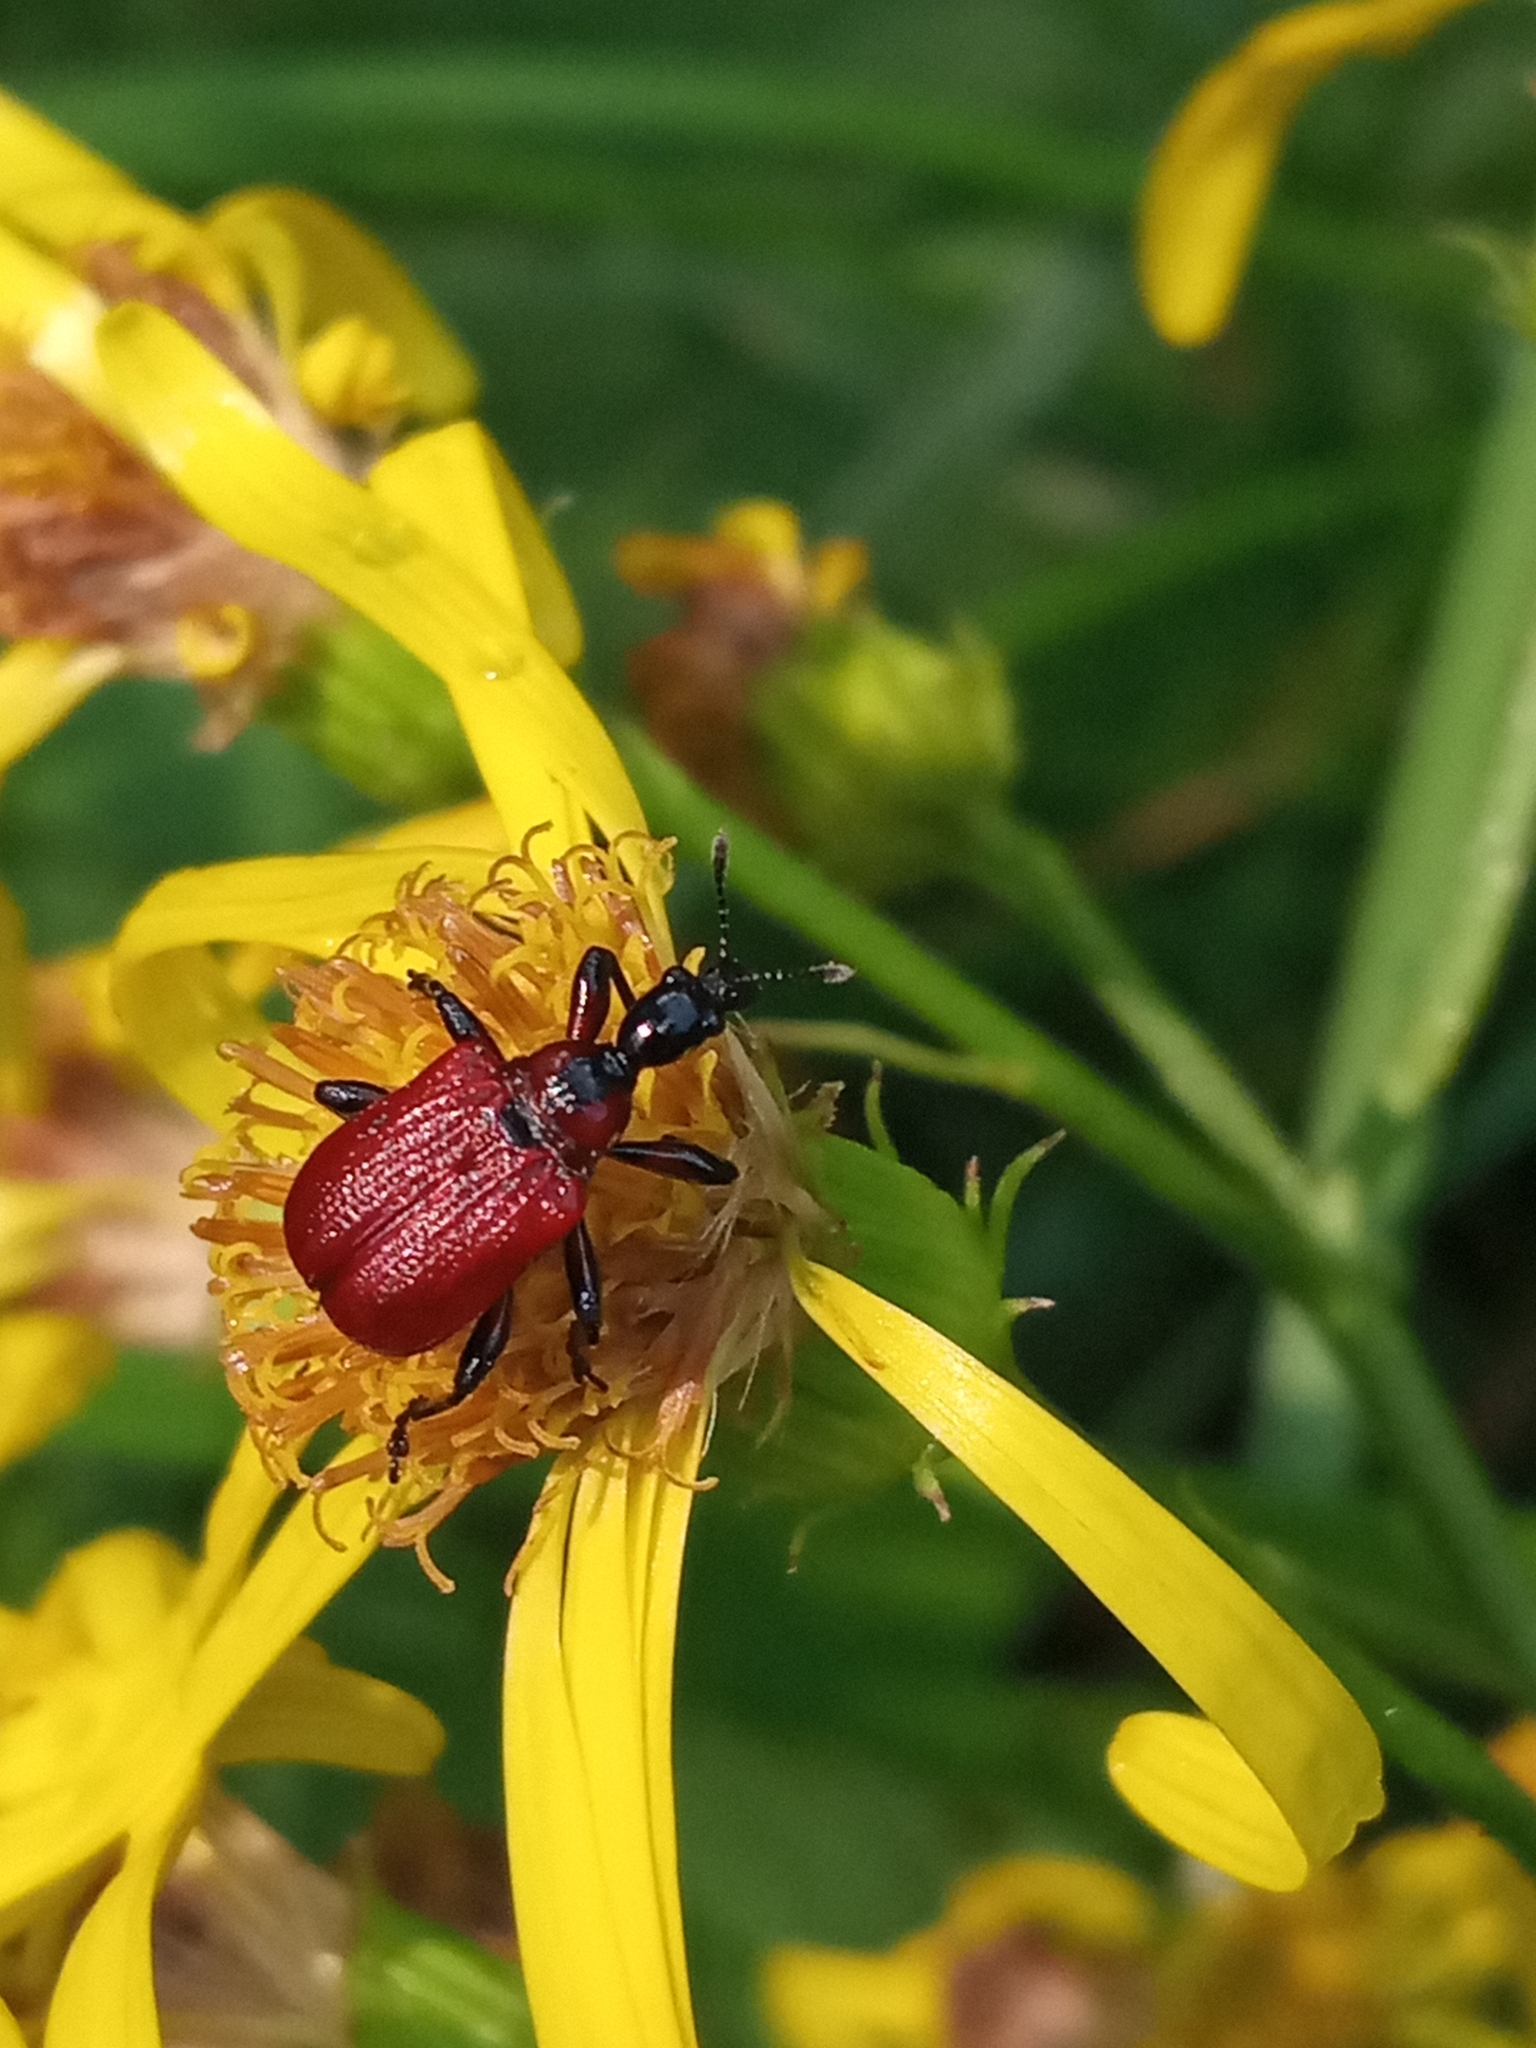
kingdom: Animalia
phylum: Arthropoda
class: Insecta
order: Coleoptera
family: Attelabidae
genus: Apoderus
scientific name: Apoderus coryli
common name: Hazel leaf roller
